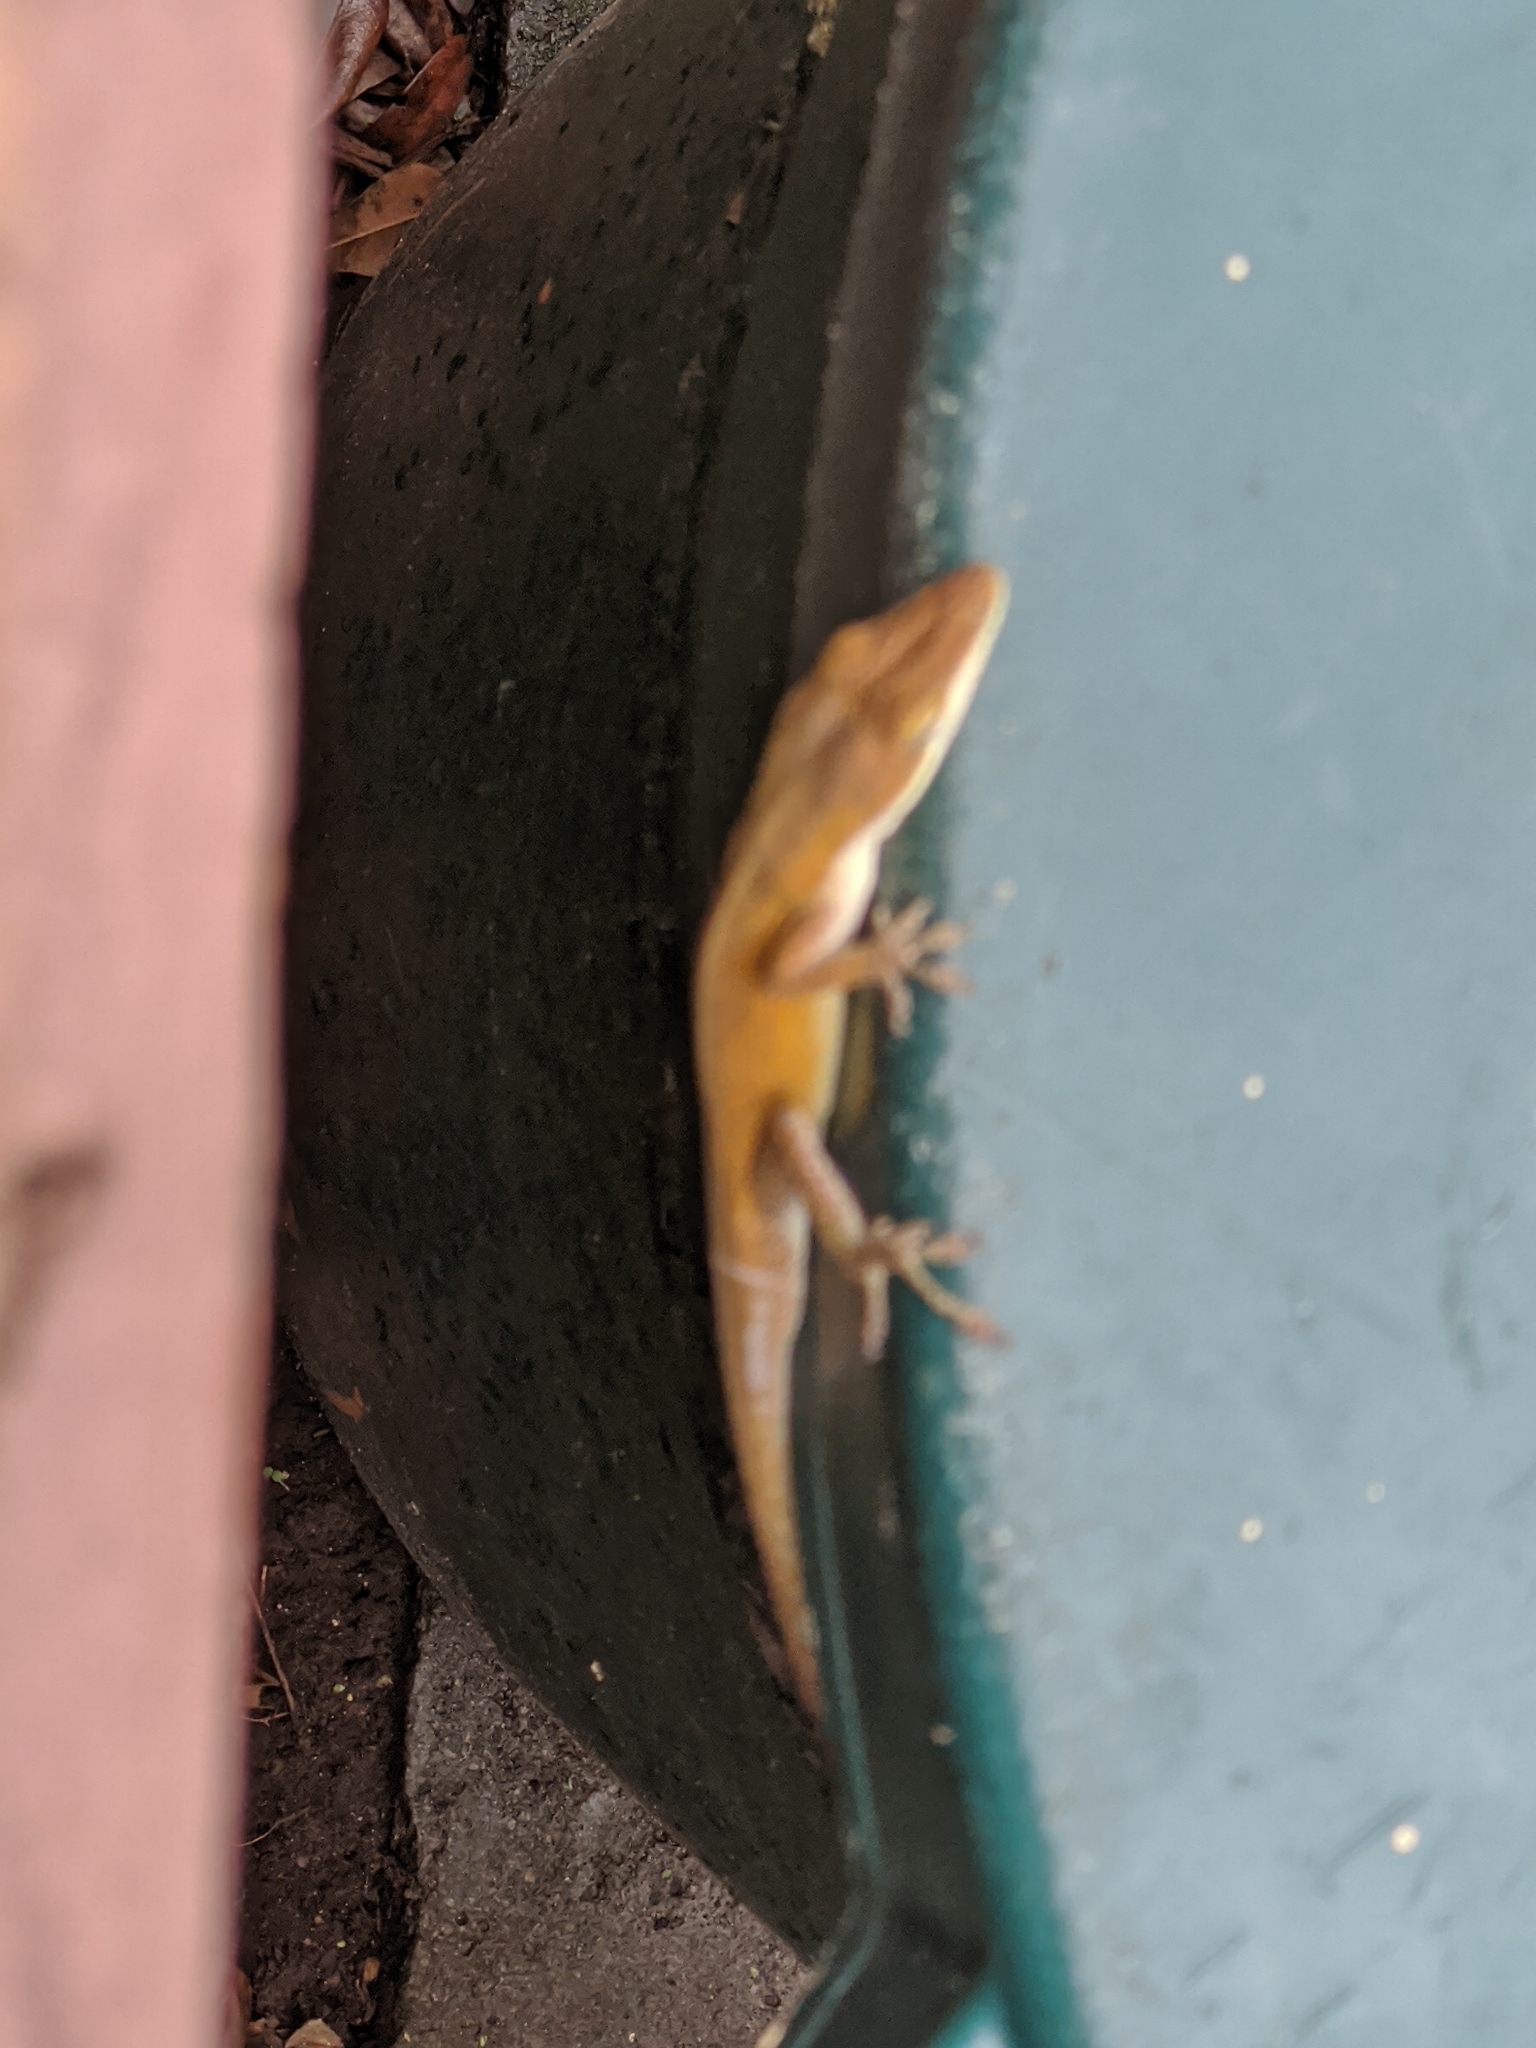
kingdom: Animalia
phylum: Chordata
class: Squamata
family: Dactyloidae
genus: Anolis
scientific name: Anolis carolinensis
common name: Green anole
